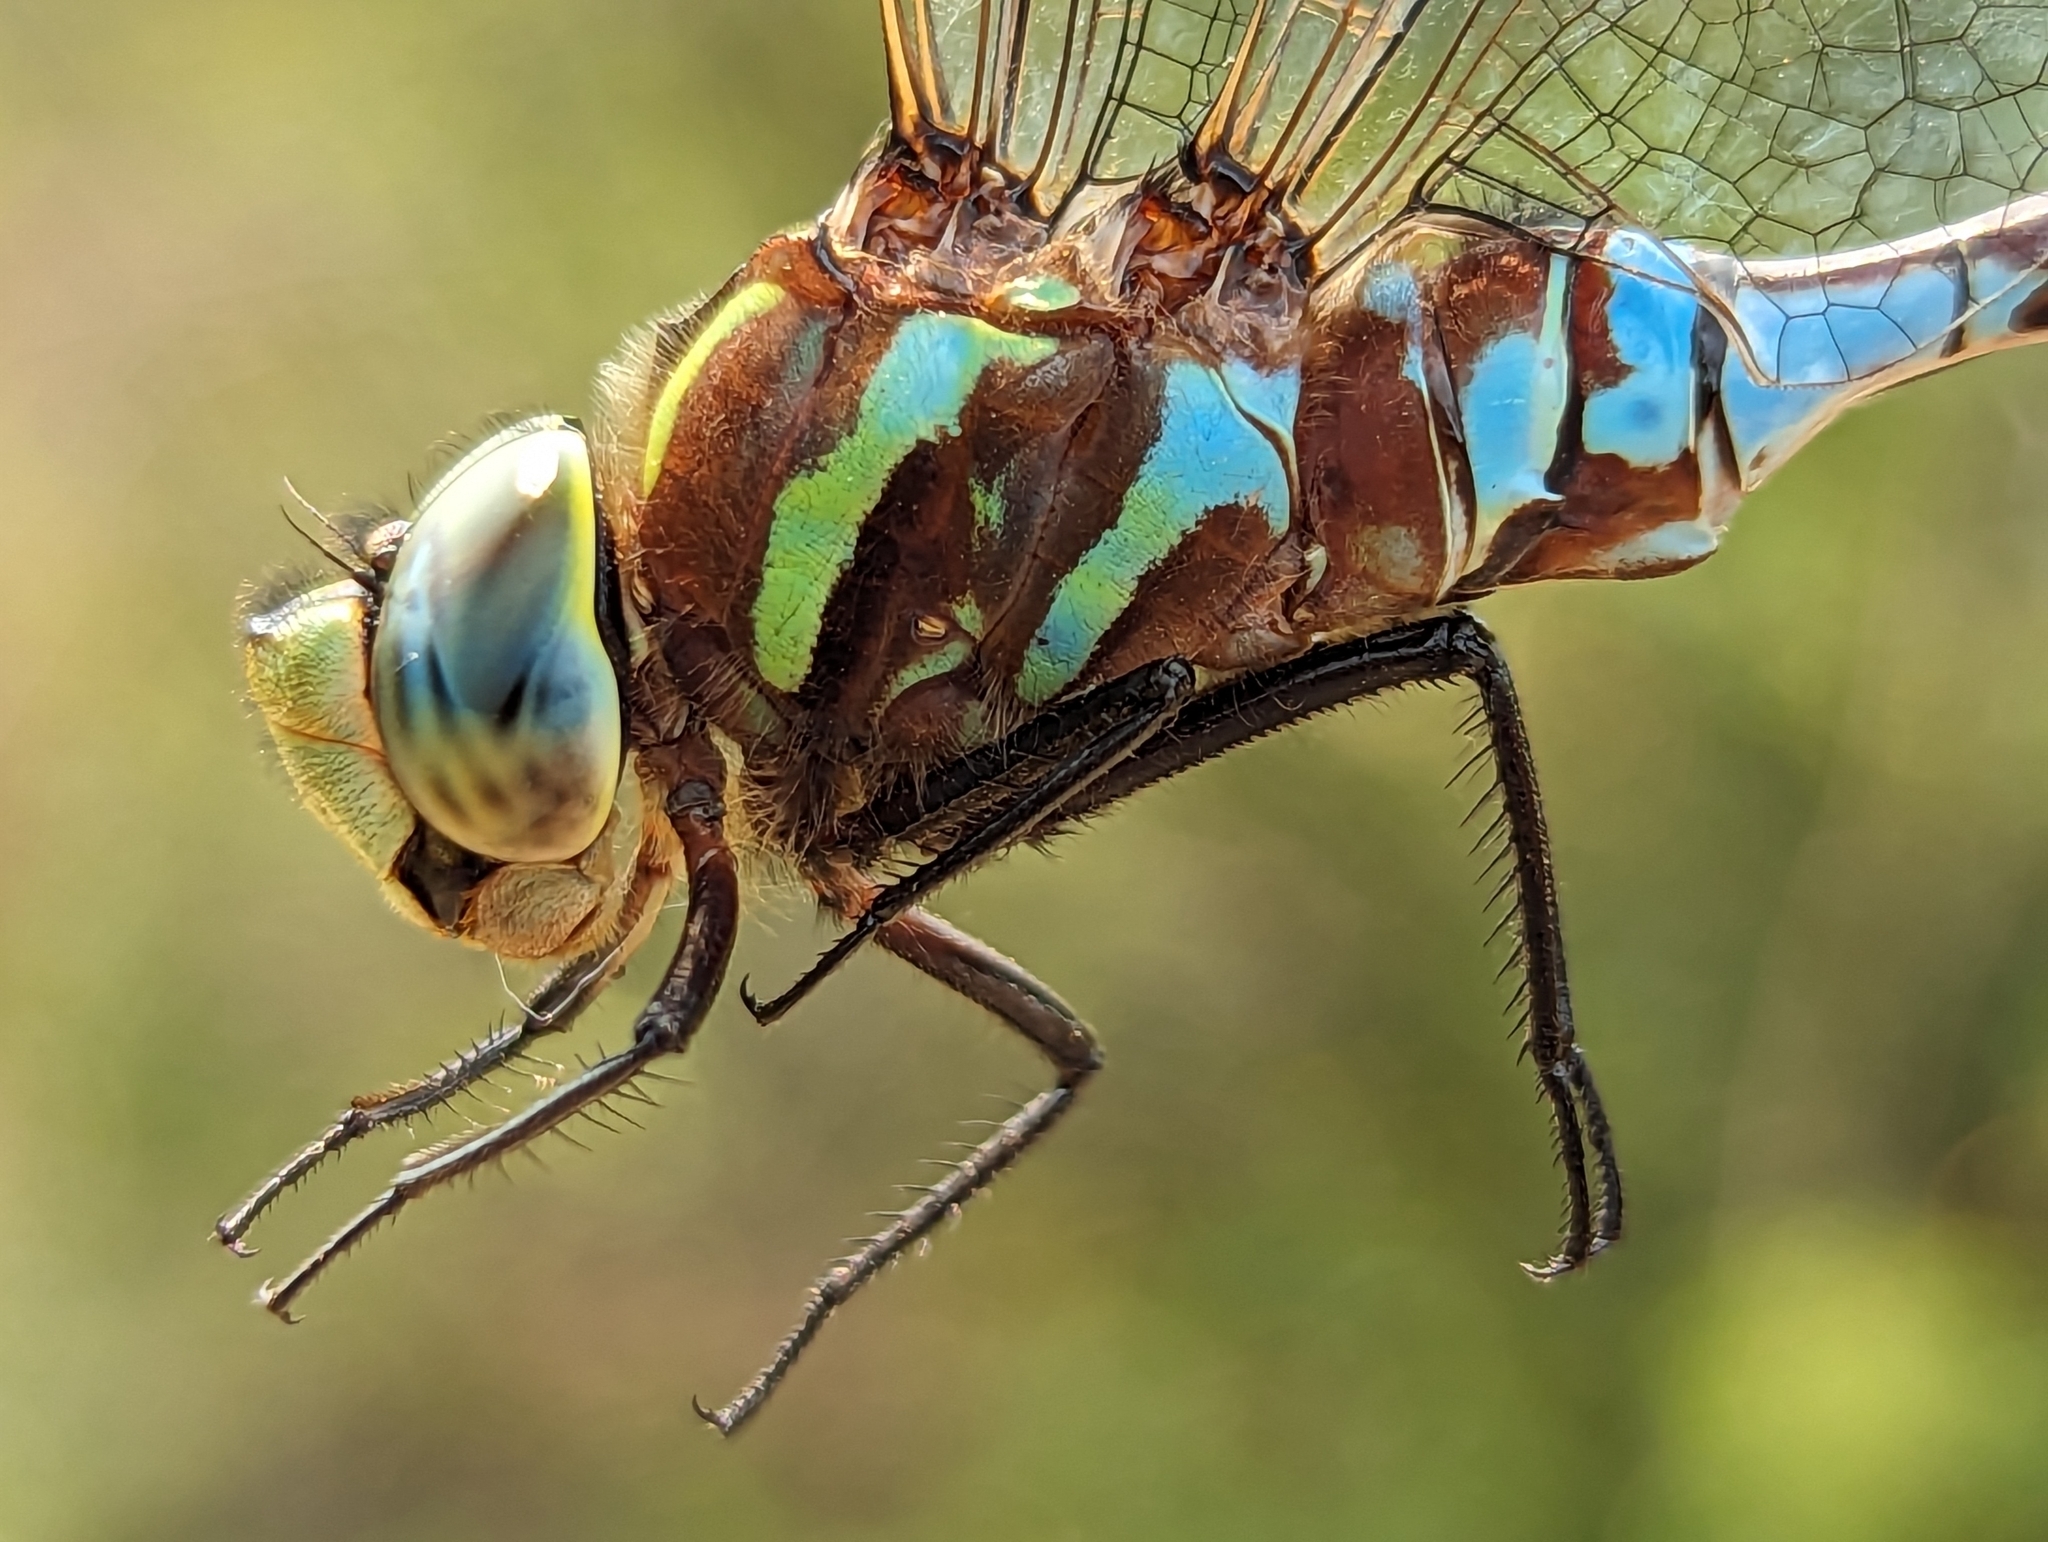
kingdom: Animalia
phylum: Arthropoda
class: Insecta
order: Odonata
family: Aeshnidae
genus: Aeshna
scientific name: Aeshna constricta
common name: Lance-tipped darner
